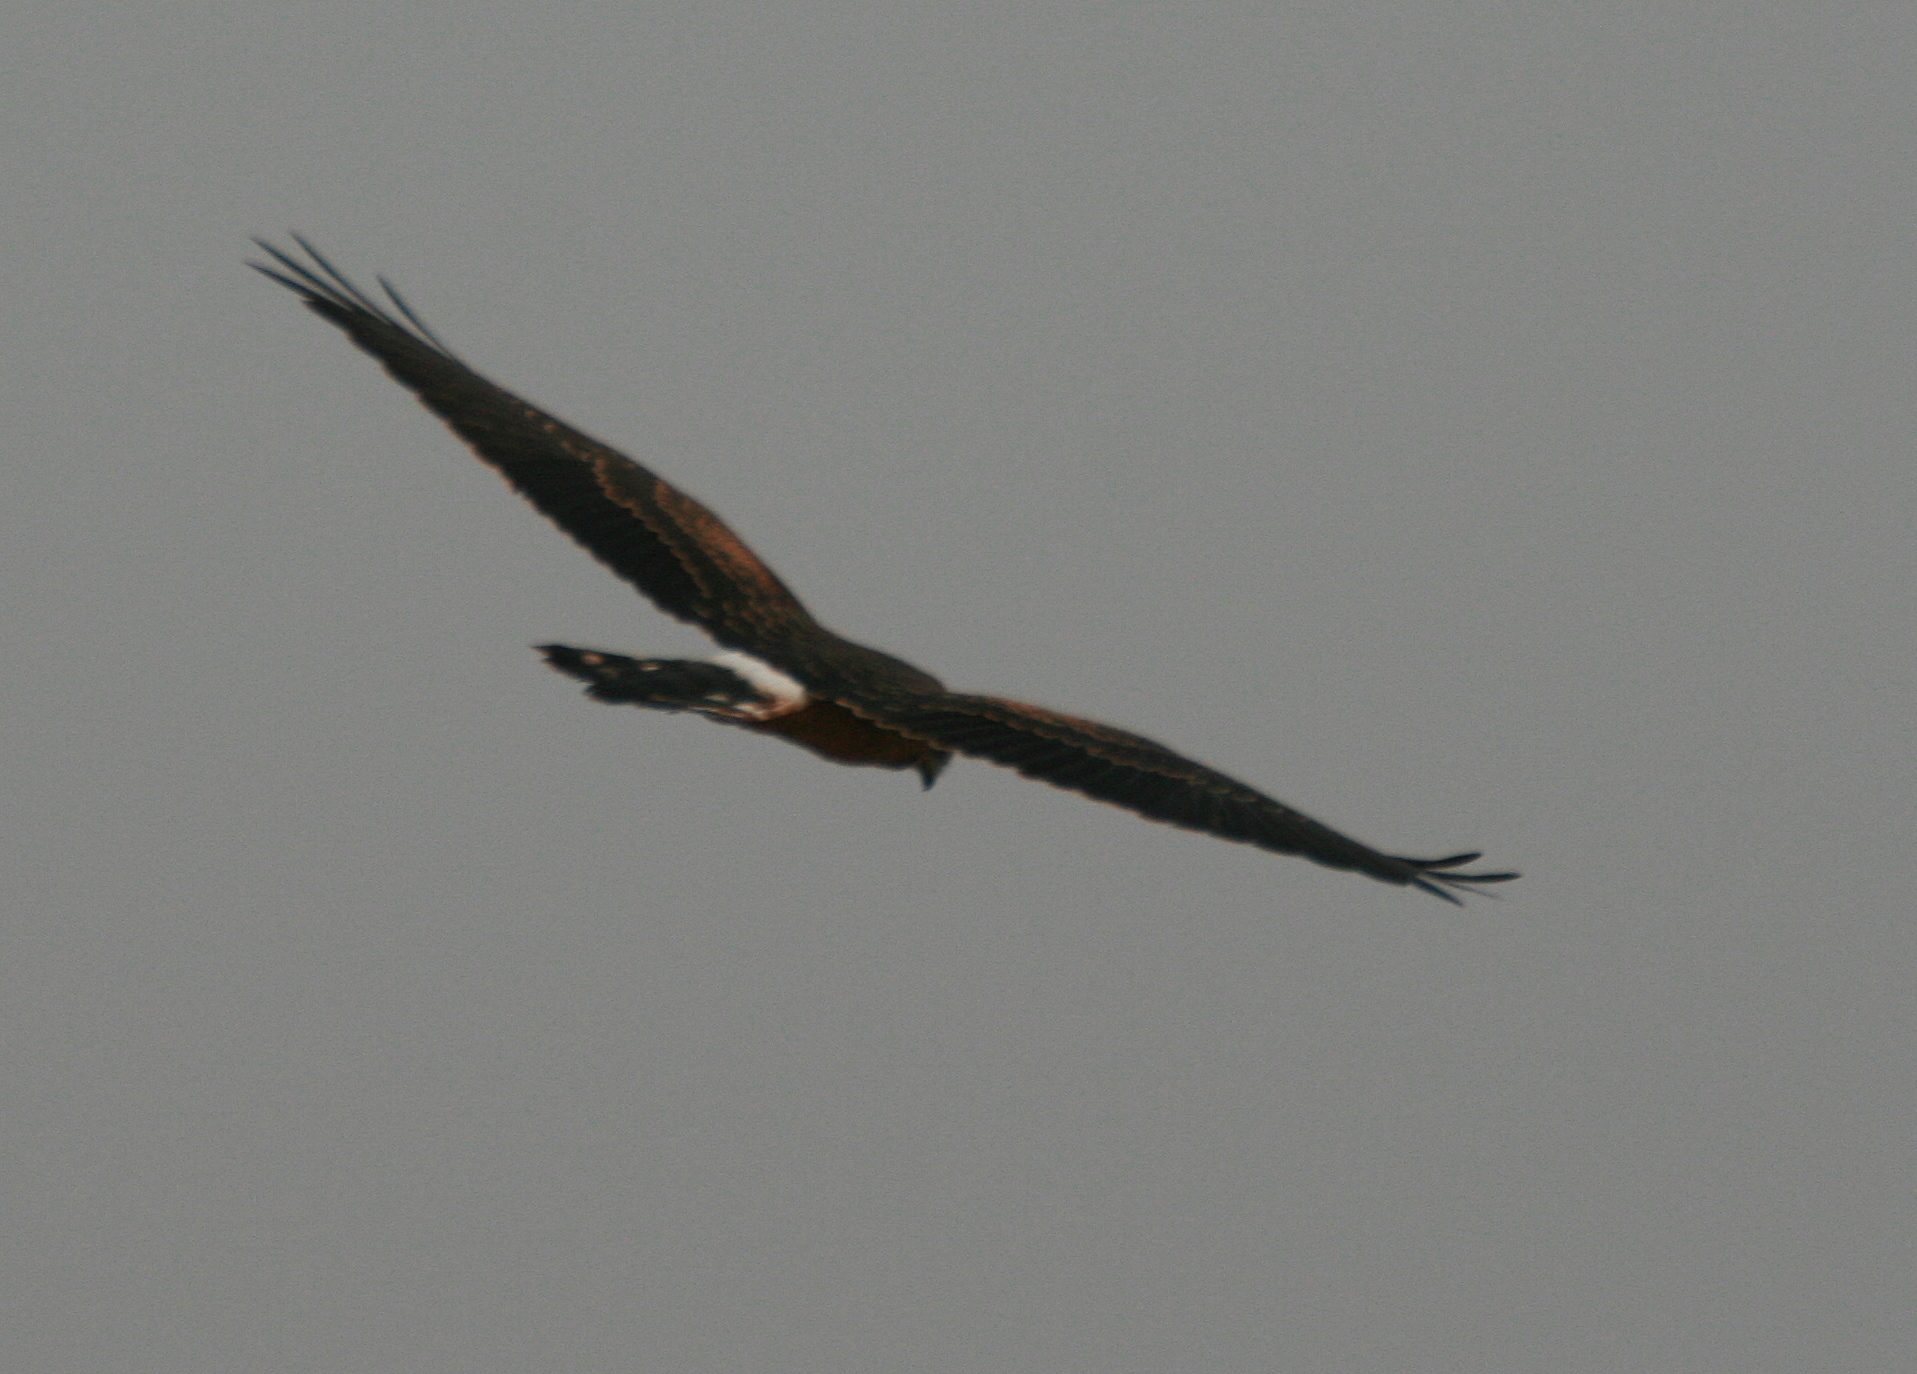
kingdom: Animalia
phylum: Chordata
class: Aves
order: Accipitriformes
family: Accipitridae
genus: Circus
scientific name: Circus pygargus
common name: Montagu's harrier
